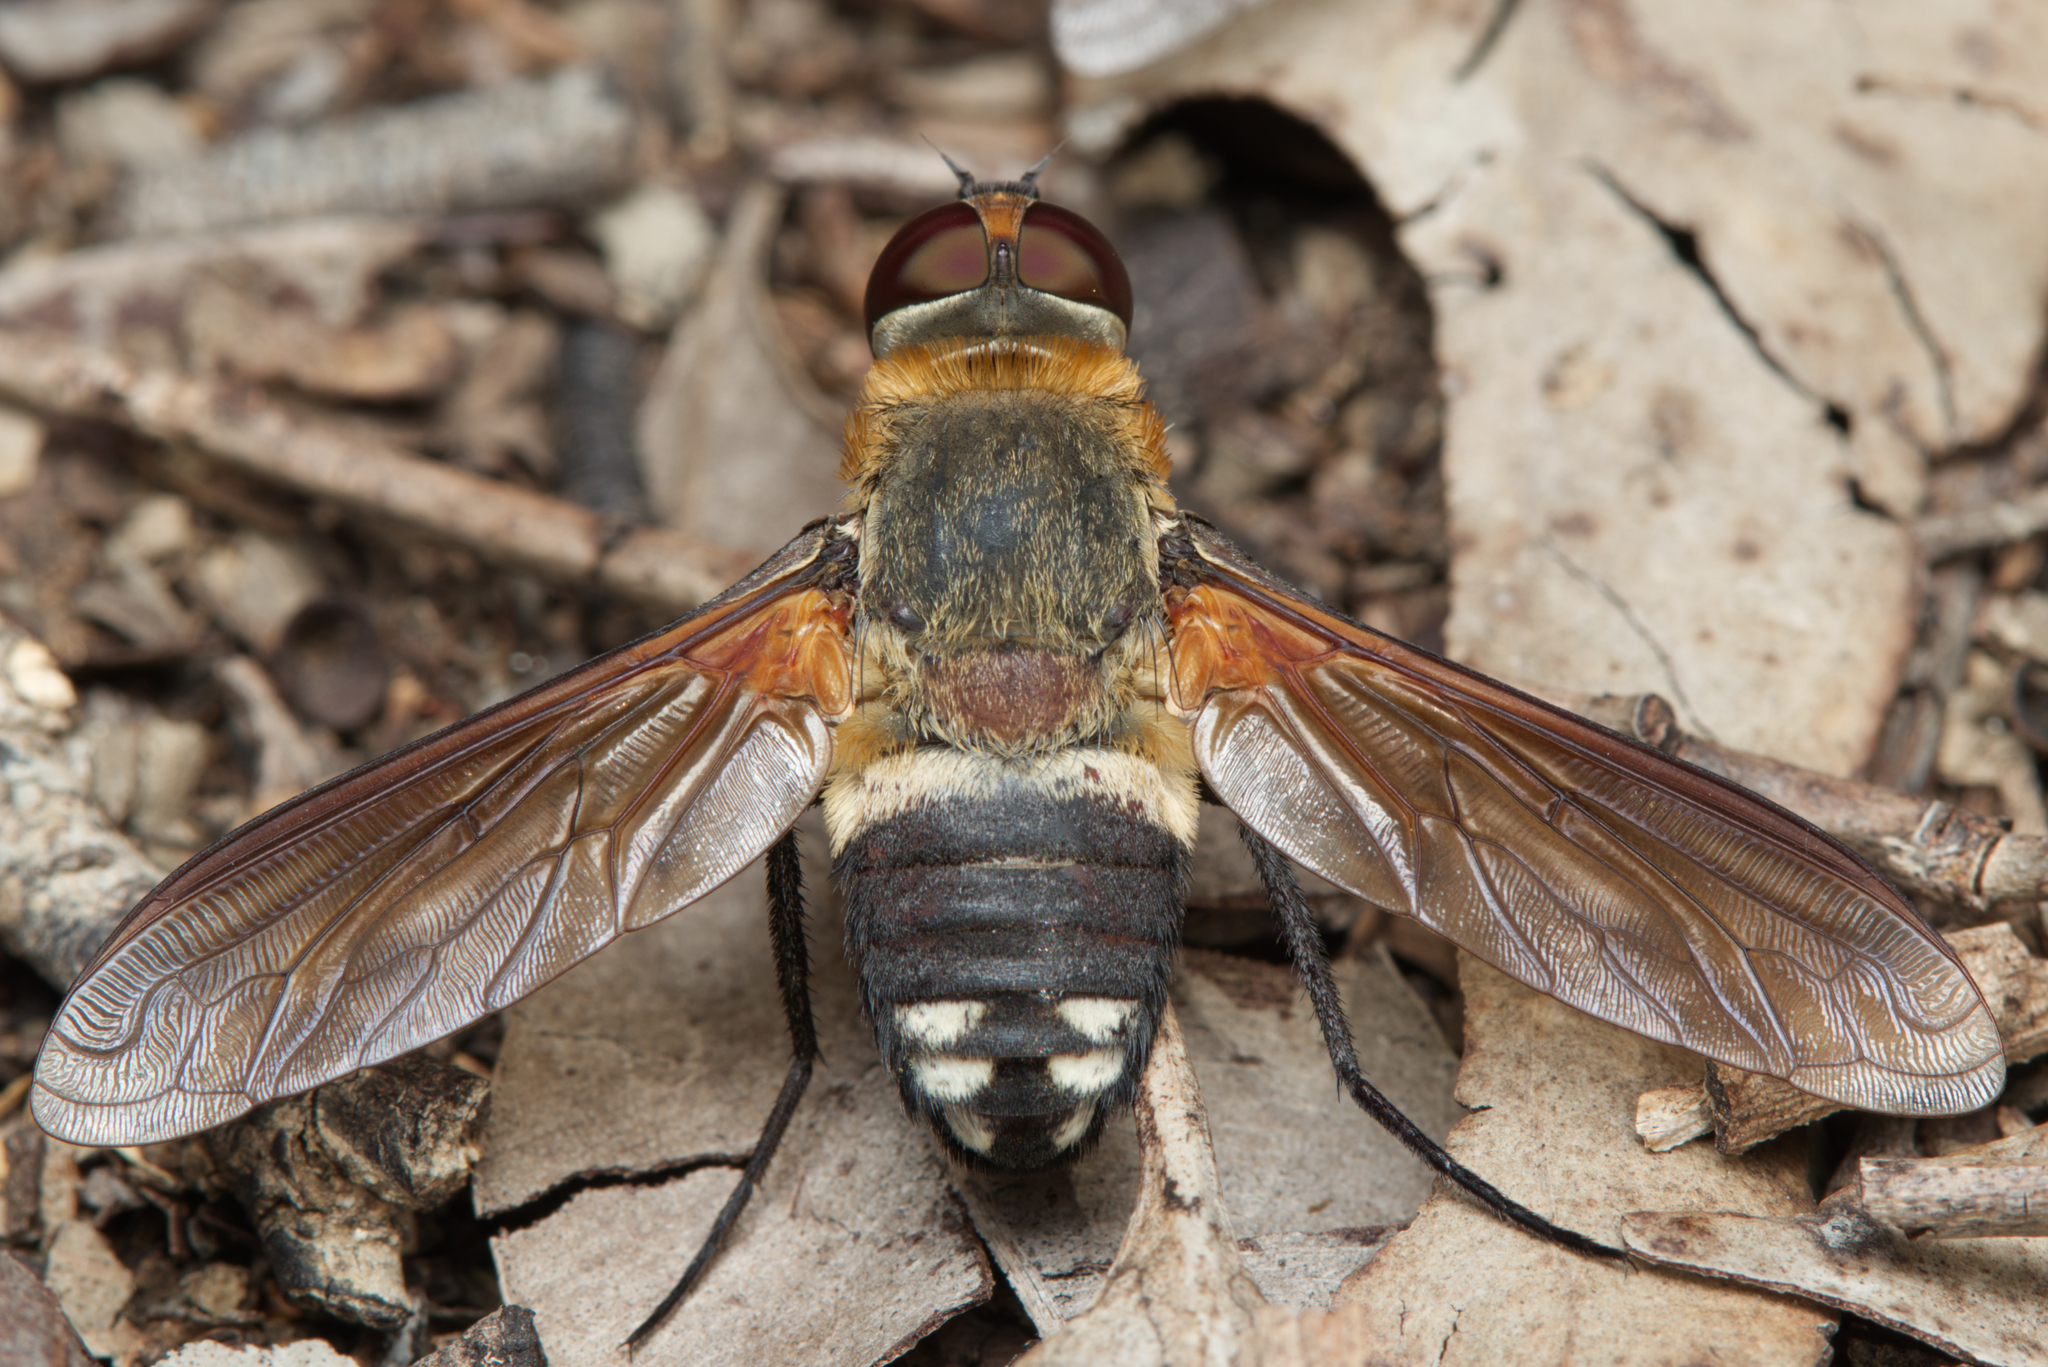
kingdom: Animalia
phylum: Arthropoda
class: Insecta
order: Diptera
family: Bombyliidae
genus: Ligyra
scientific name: Ligyra satyrus
